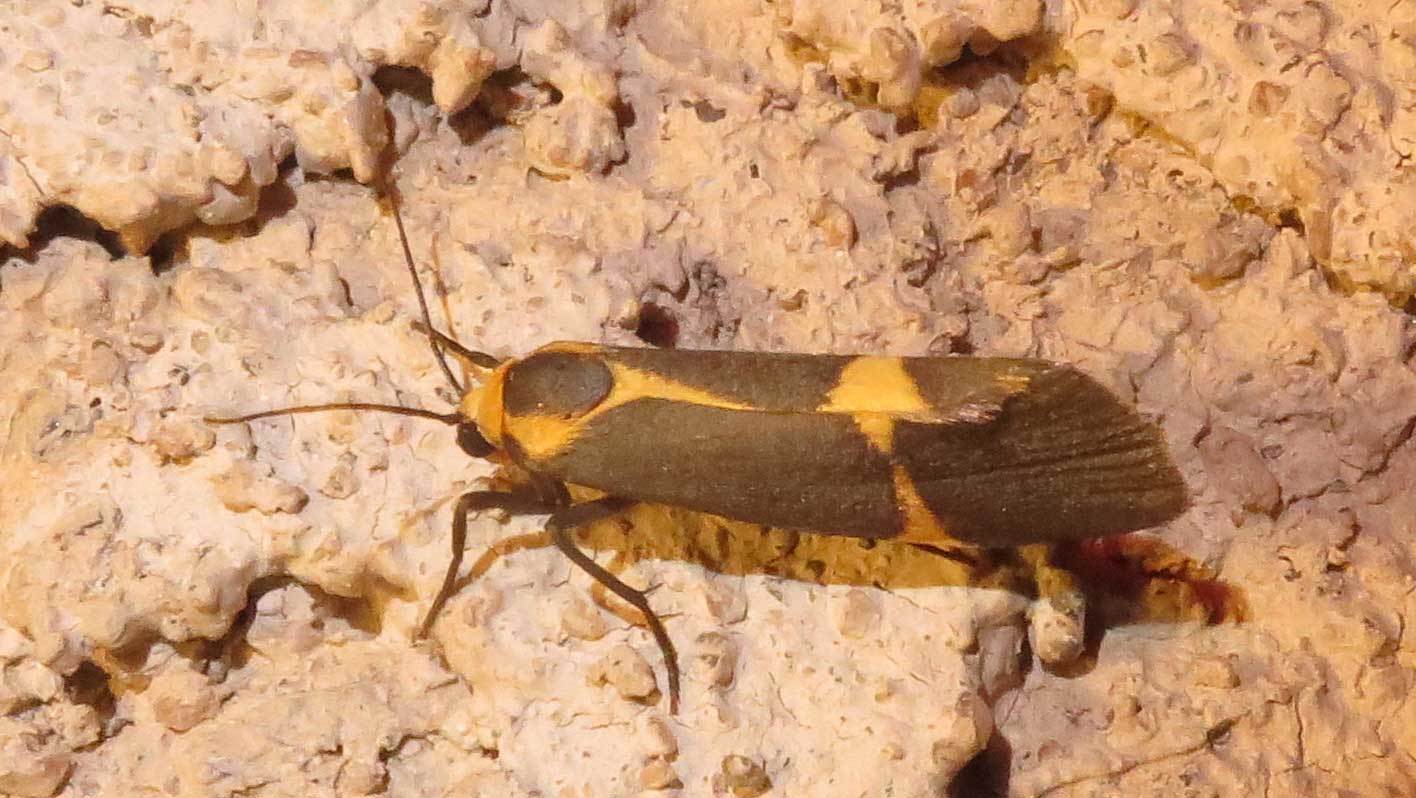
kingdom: Animalia
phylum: Arthropoda
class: Insecta
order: Lepidoptera
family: Erebidae
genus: Cisthene
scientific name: Cisthene tenuifascia
